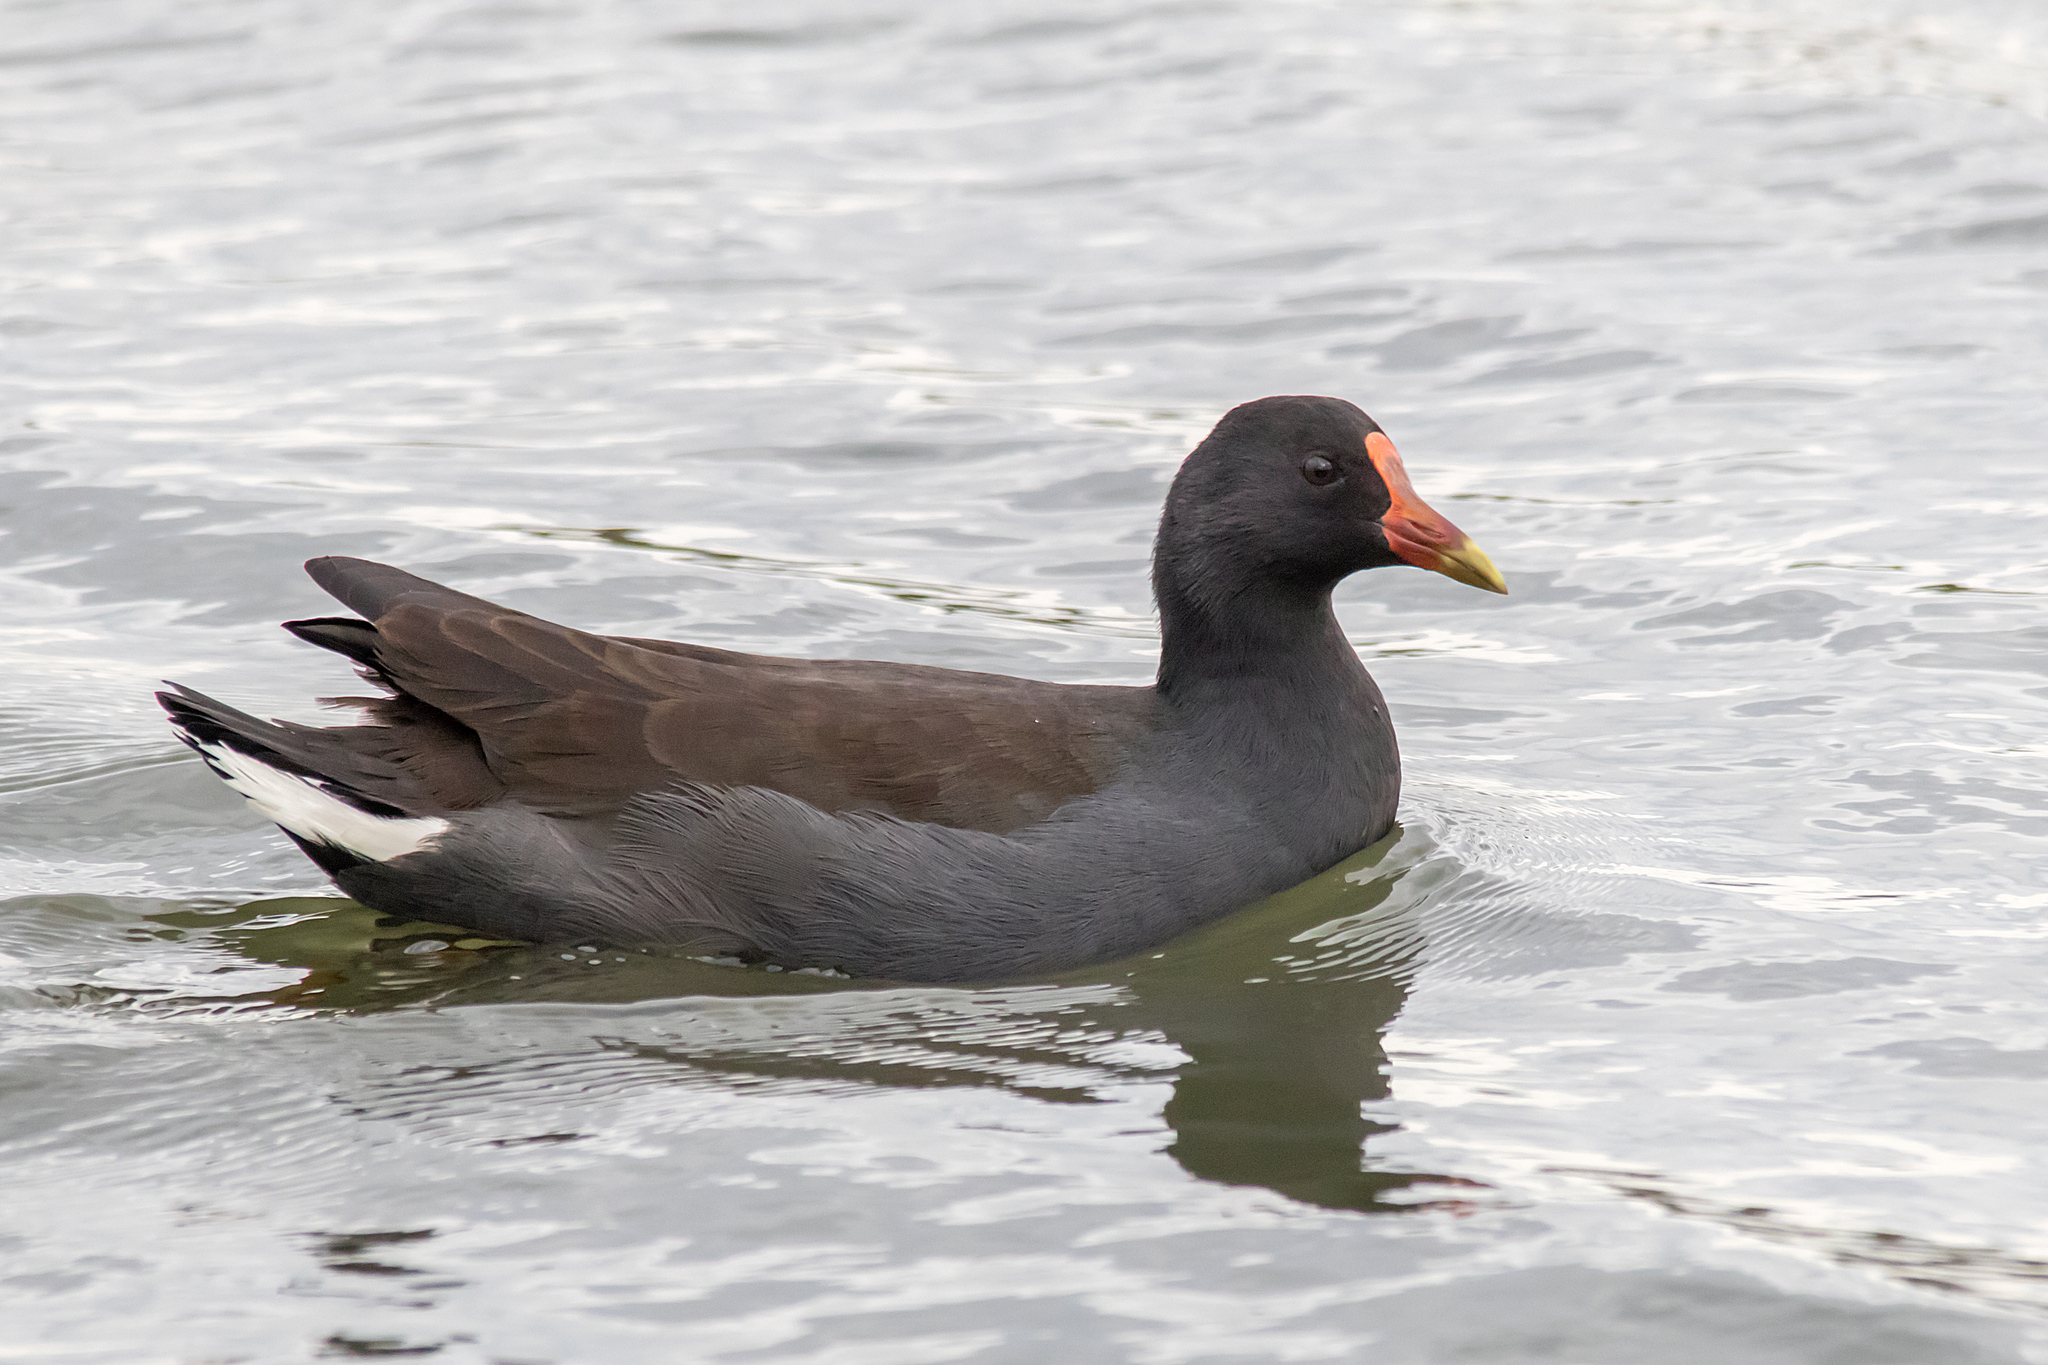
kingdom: Animalia
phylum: Chordata
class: Aves
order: Gruiformes
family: Rallidae
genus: Gallinula
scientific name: Gallinula tenebrosa
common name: Dusky moorhen
